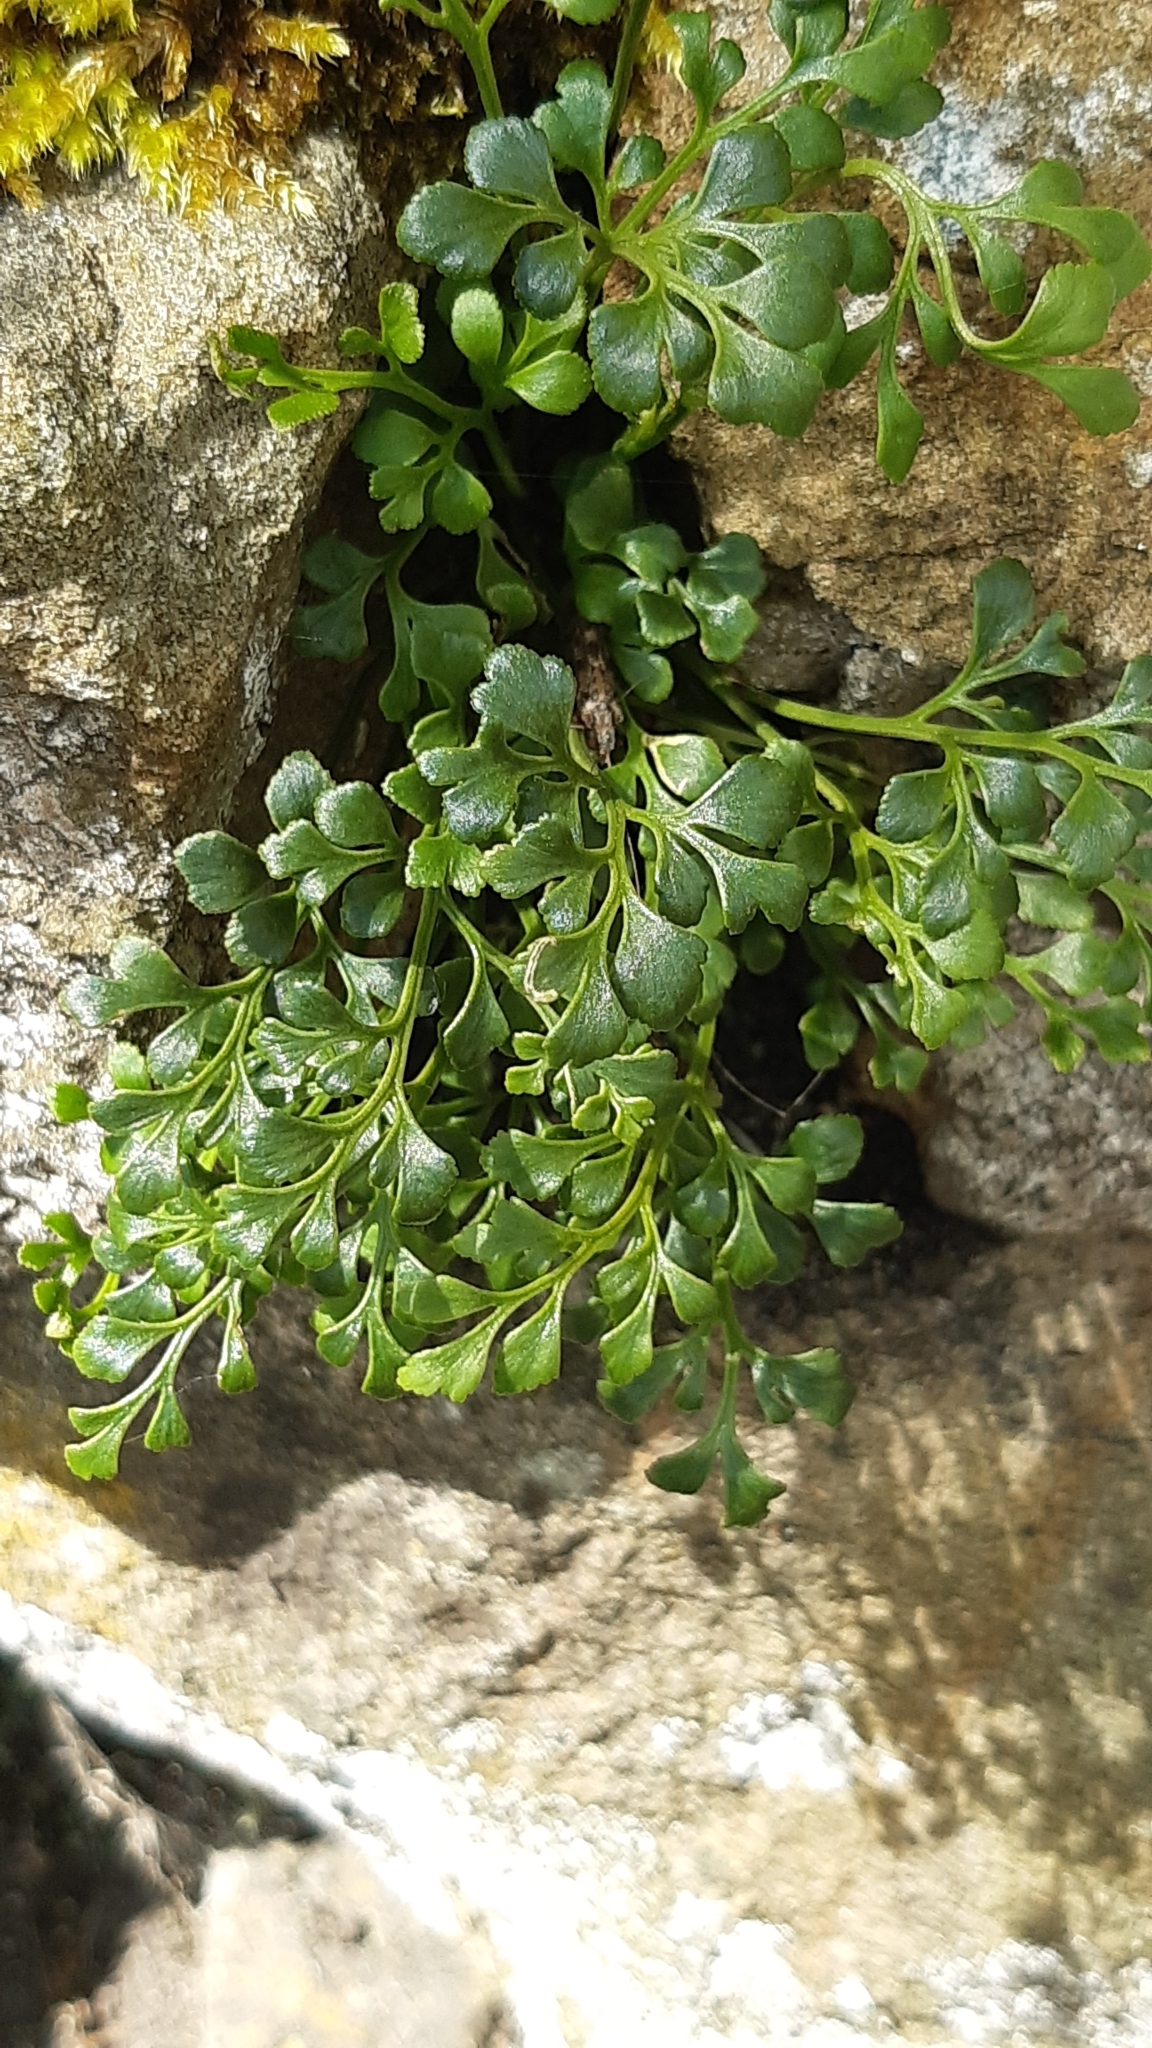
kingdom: Plantae
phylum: Tracheophyta
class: Polypodiopsida
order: Polypodiales
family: Aspleniaceae
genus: Asplenium
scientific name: Asplenium ruta-muraria
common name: Wall-rue
